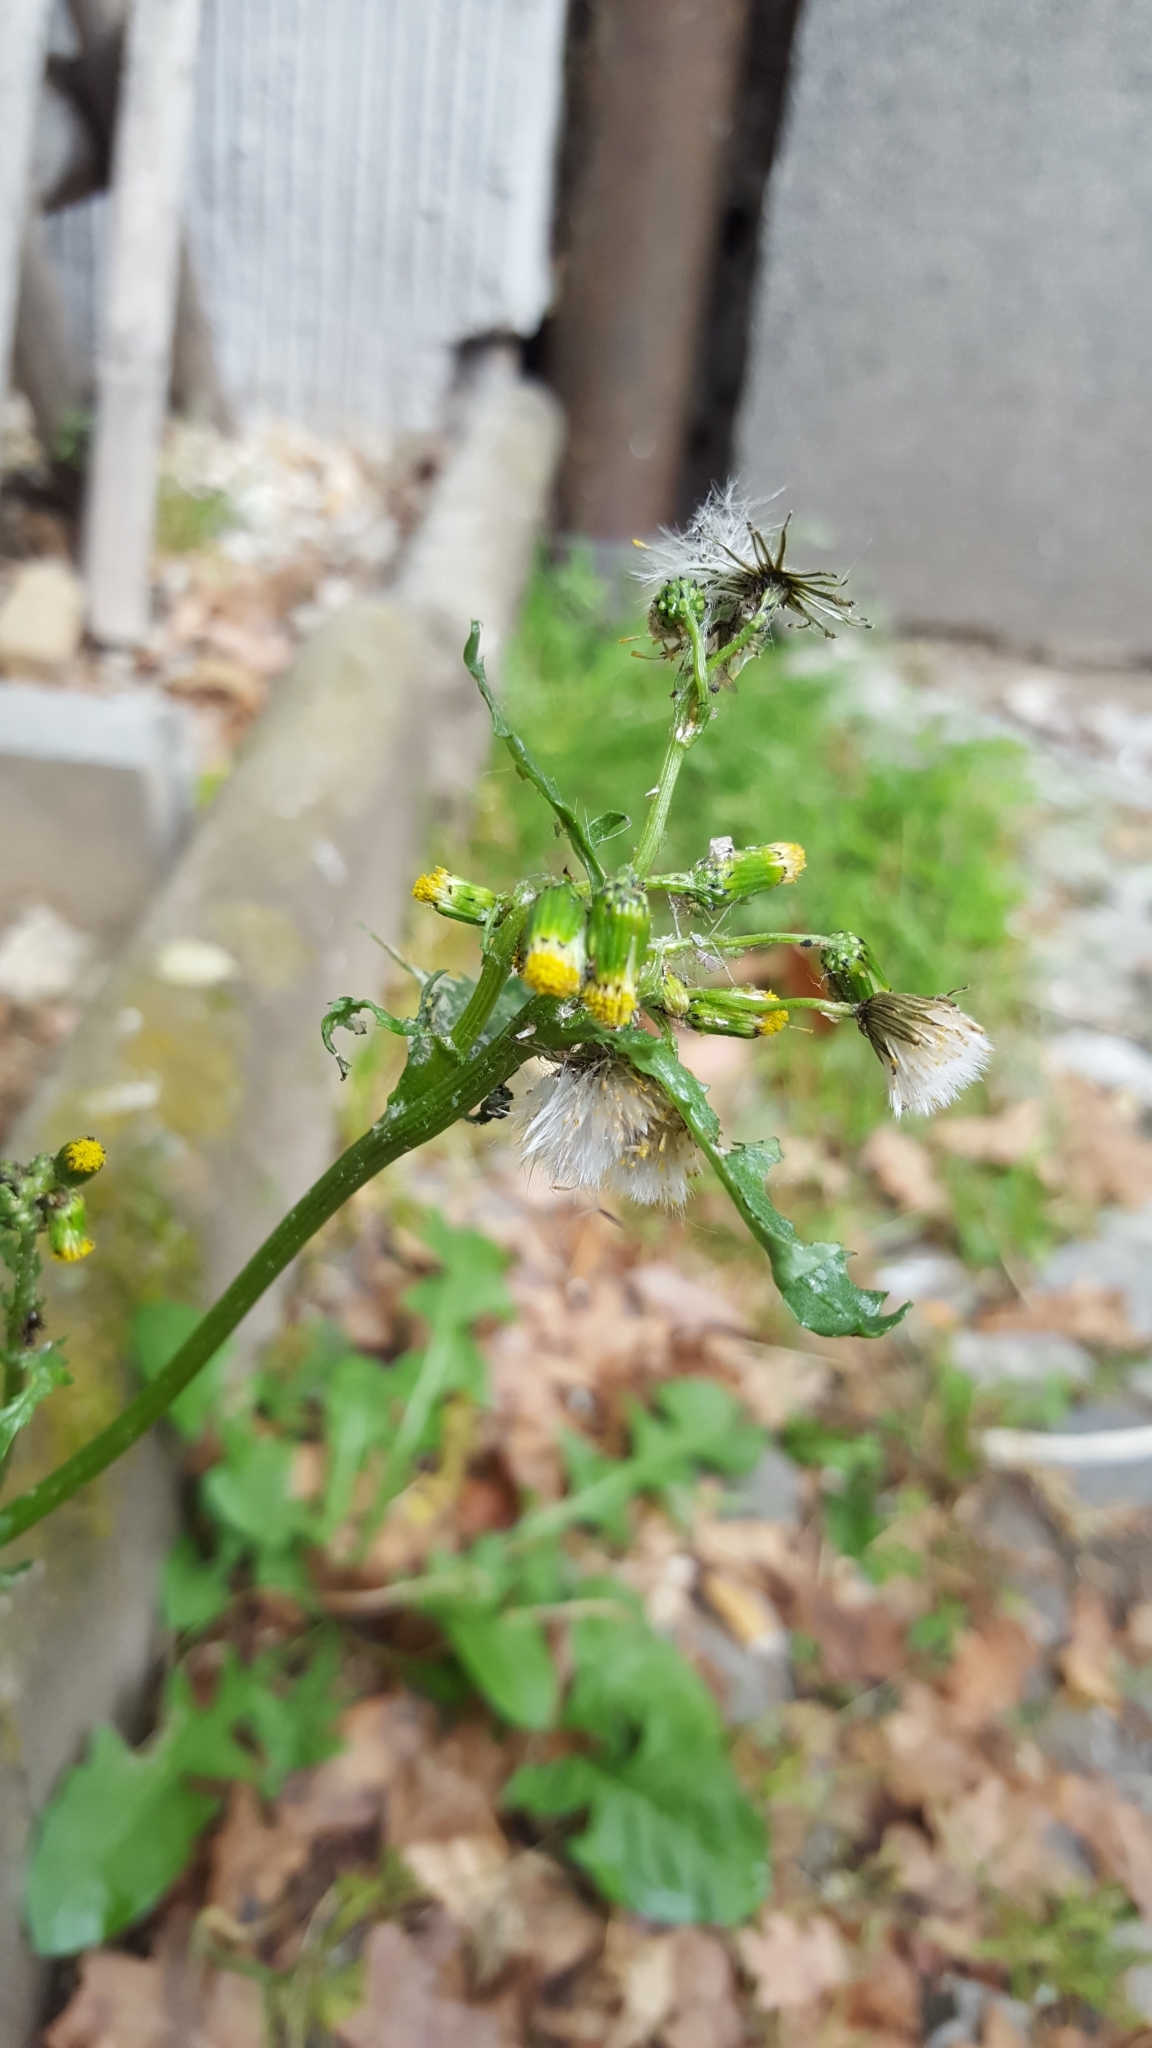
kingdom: Plantae
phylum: Tracheophyta
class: Magnoliopsida
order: Asterales
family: Asteraceae
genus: Senecio
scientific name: Senecio vulgaris
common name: Old-man-in-the-spring
